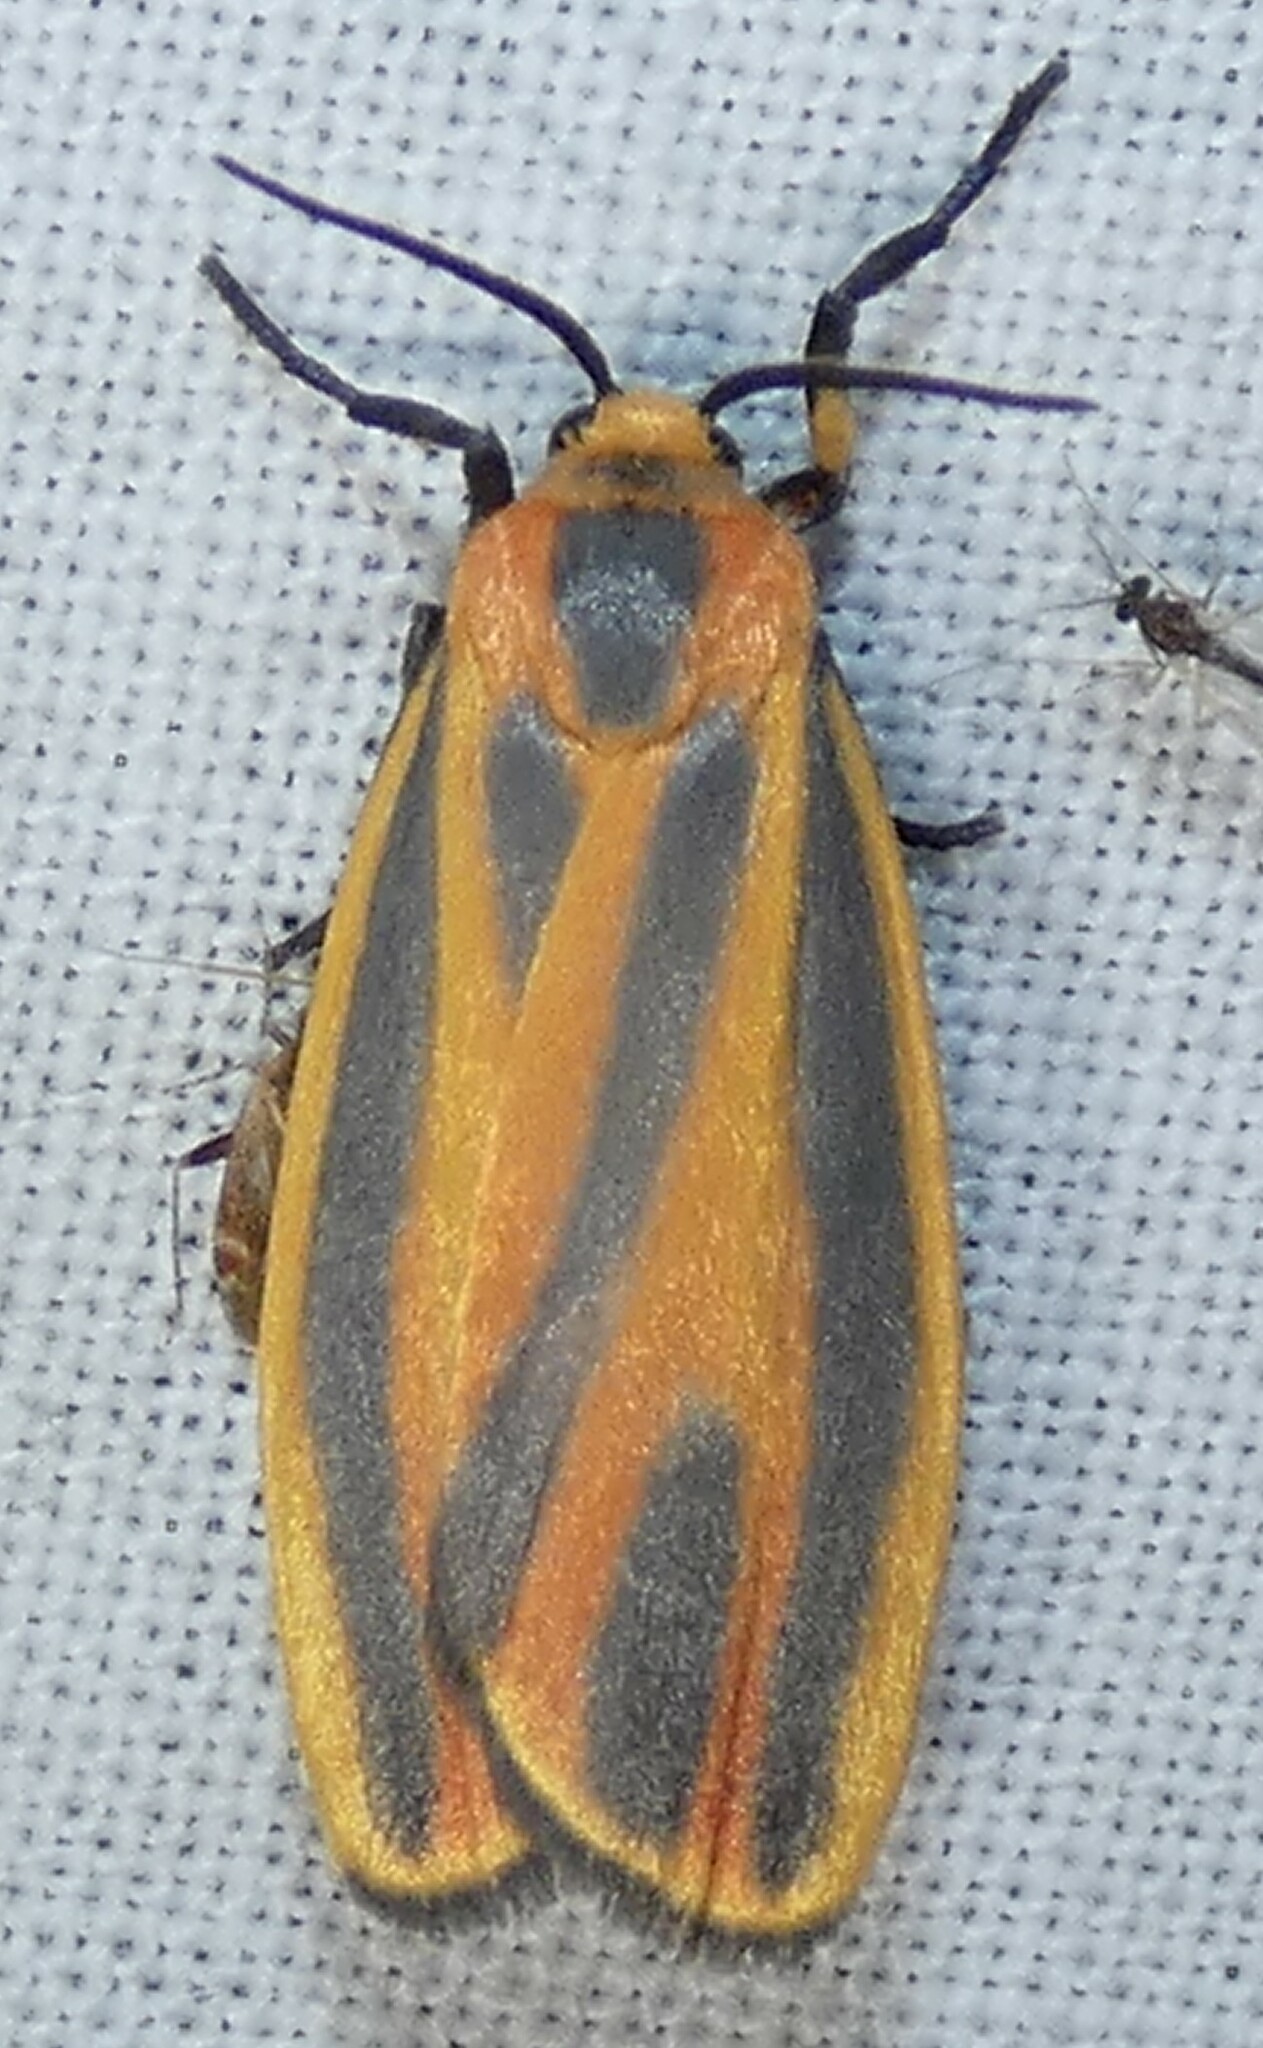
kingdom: Animalia
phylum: Arthropoda
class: Insecta
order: Lepidoptera
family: Erebidae
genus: Hypoprepia
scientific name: Hypoprepia fucosa
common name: Painted lichen moth
